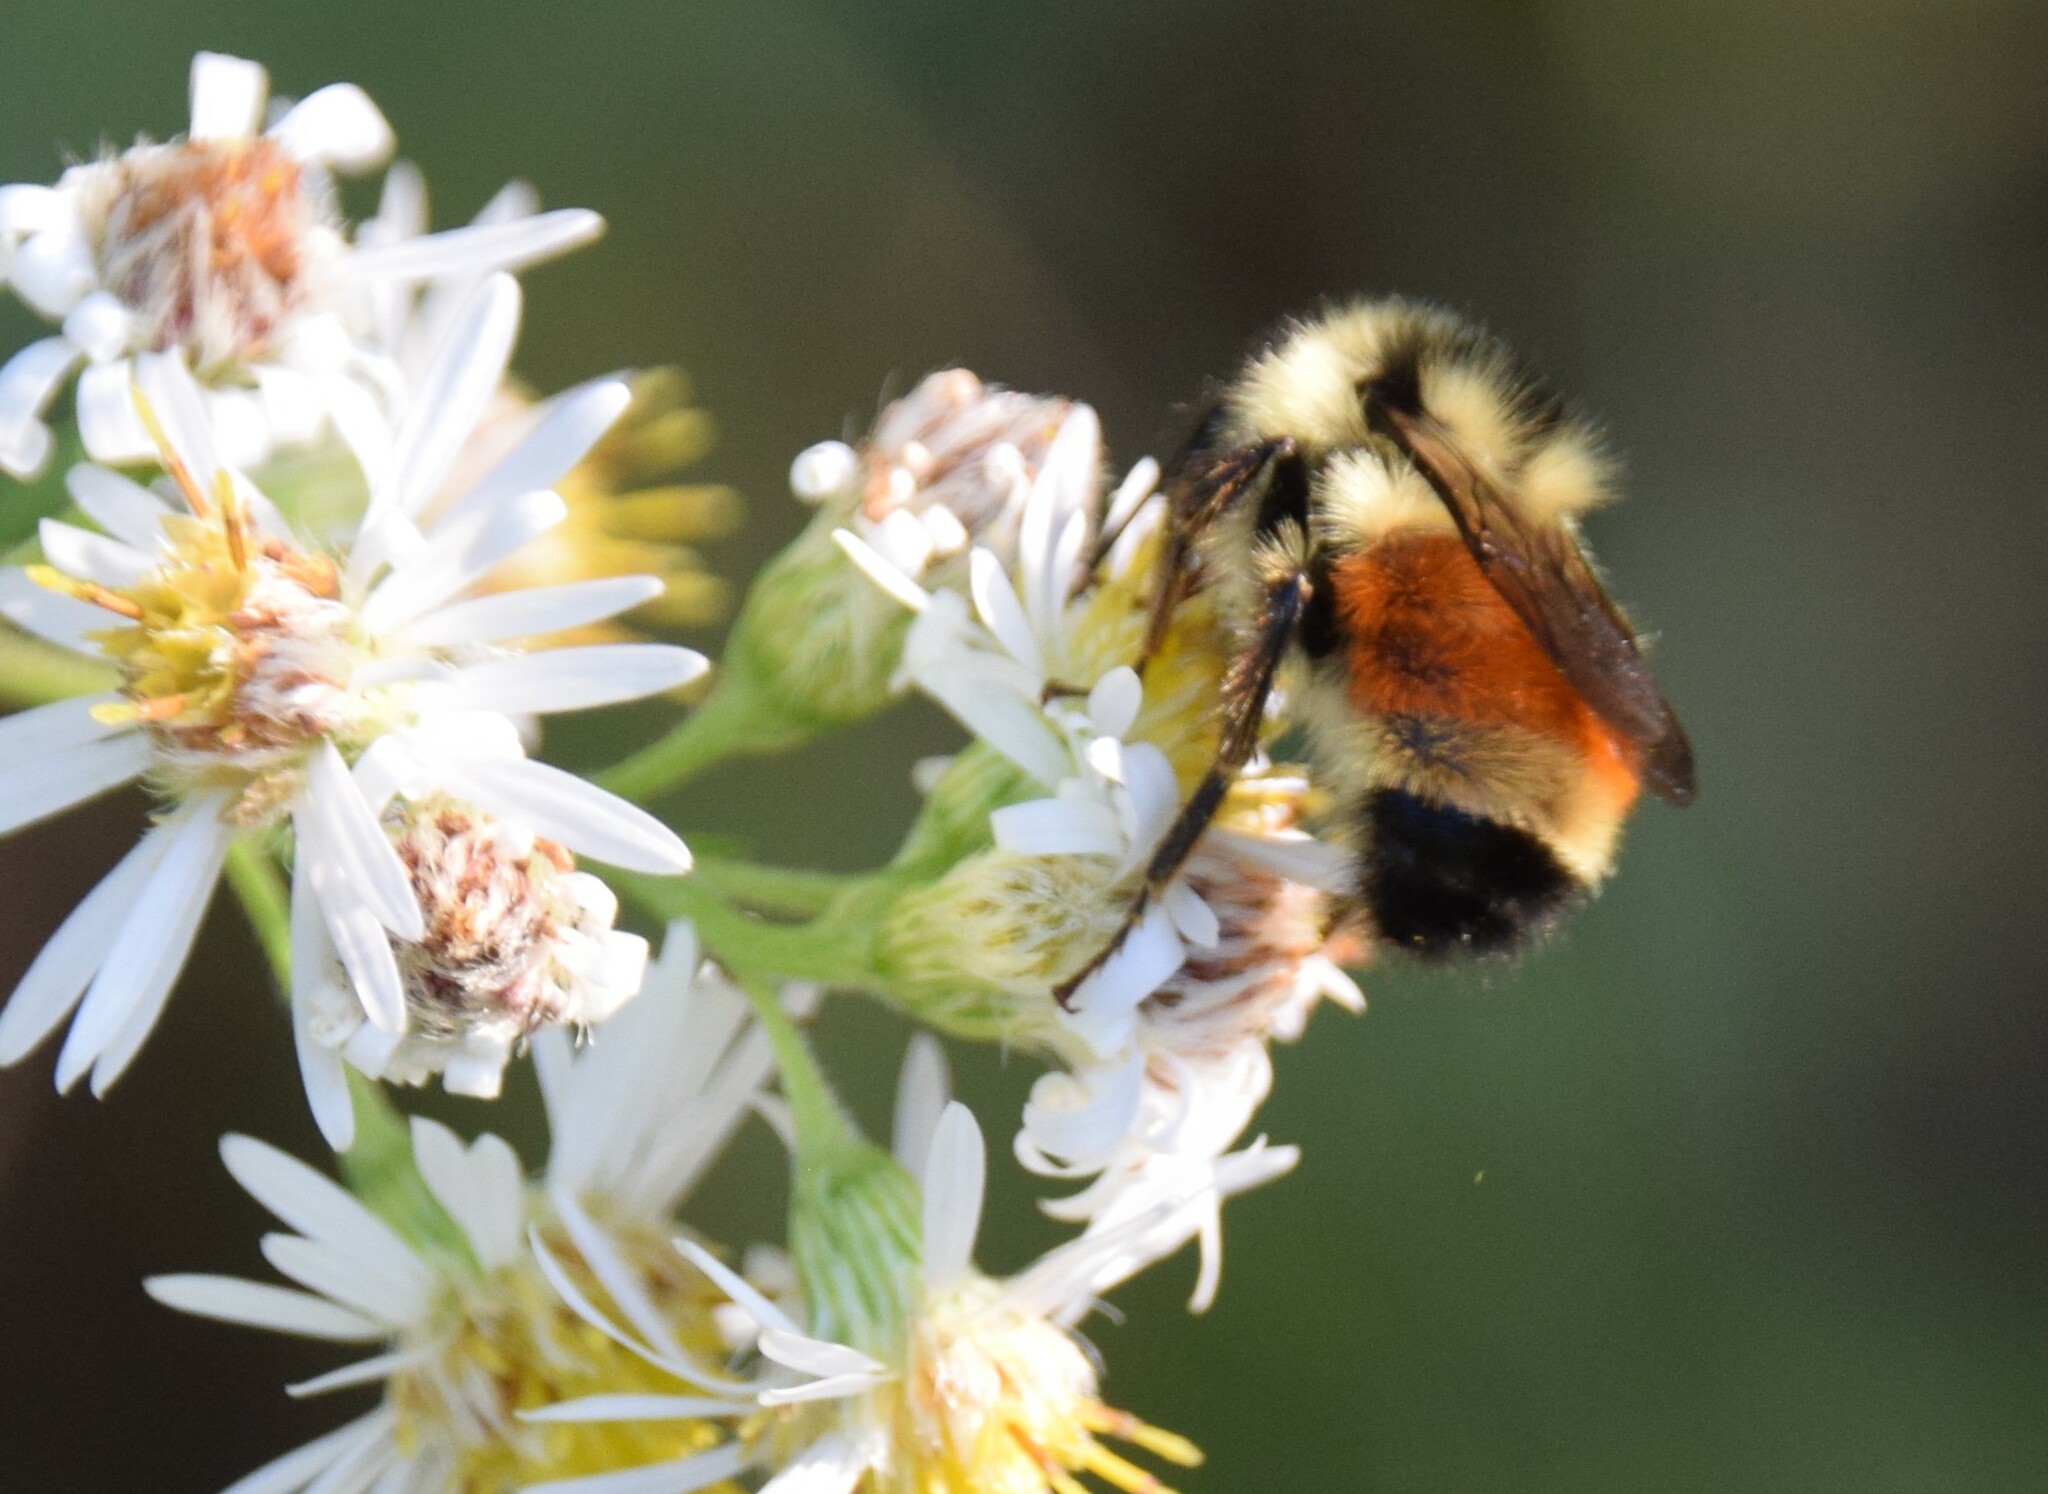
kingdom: Animalia
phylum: Arthropoda
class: Insecta
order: Hymenoptera
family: Apidae
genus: Bombus
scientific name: Bombus ternarius
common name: Tri-colored bumble bee
